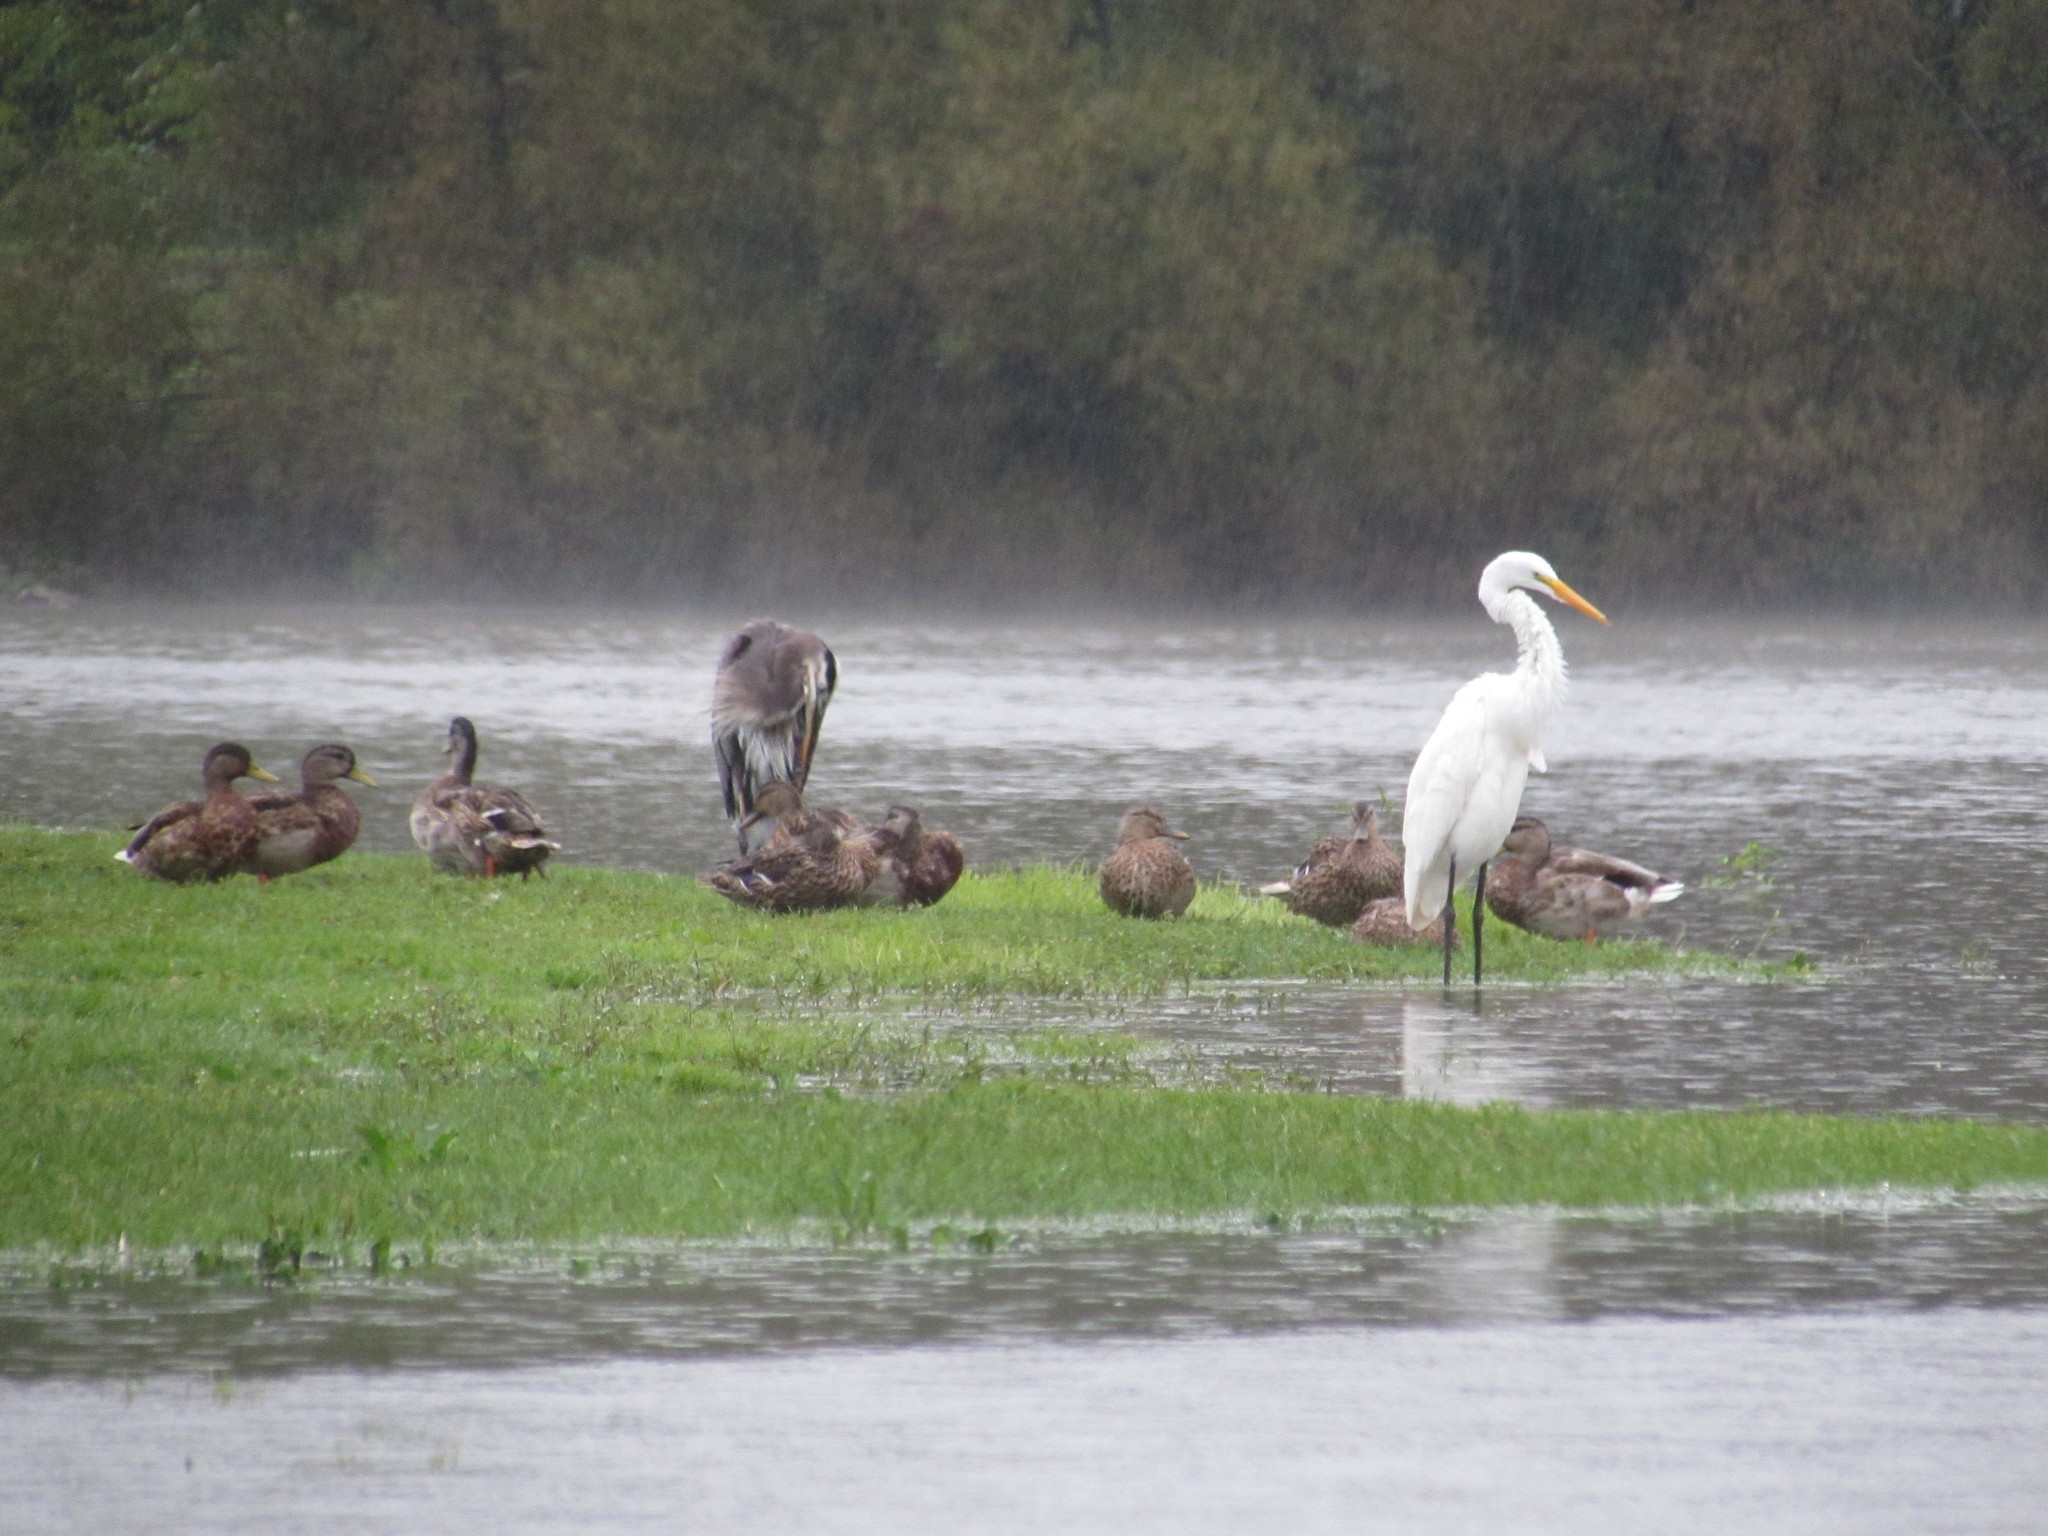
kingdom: Animalia
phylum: Chordata
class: Aves
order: Anseriformes
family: Anatidae
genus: Anas
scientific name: Anas platyrhynchos
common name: Mallard
